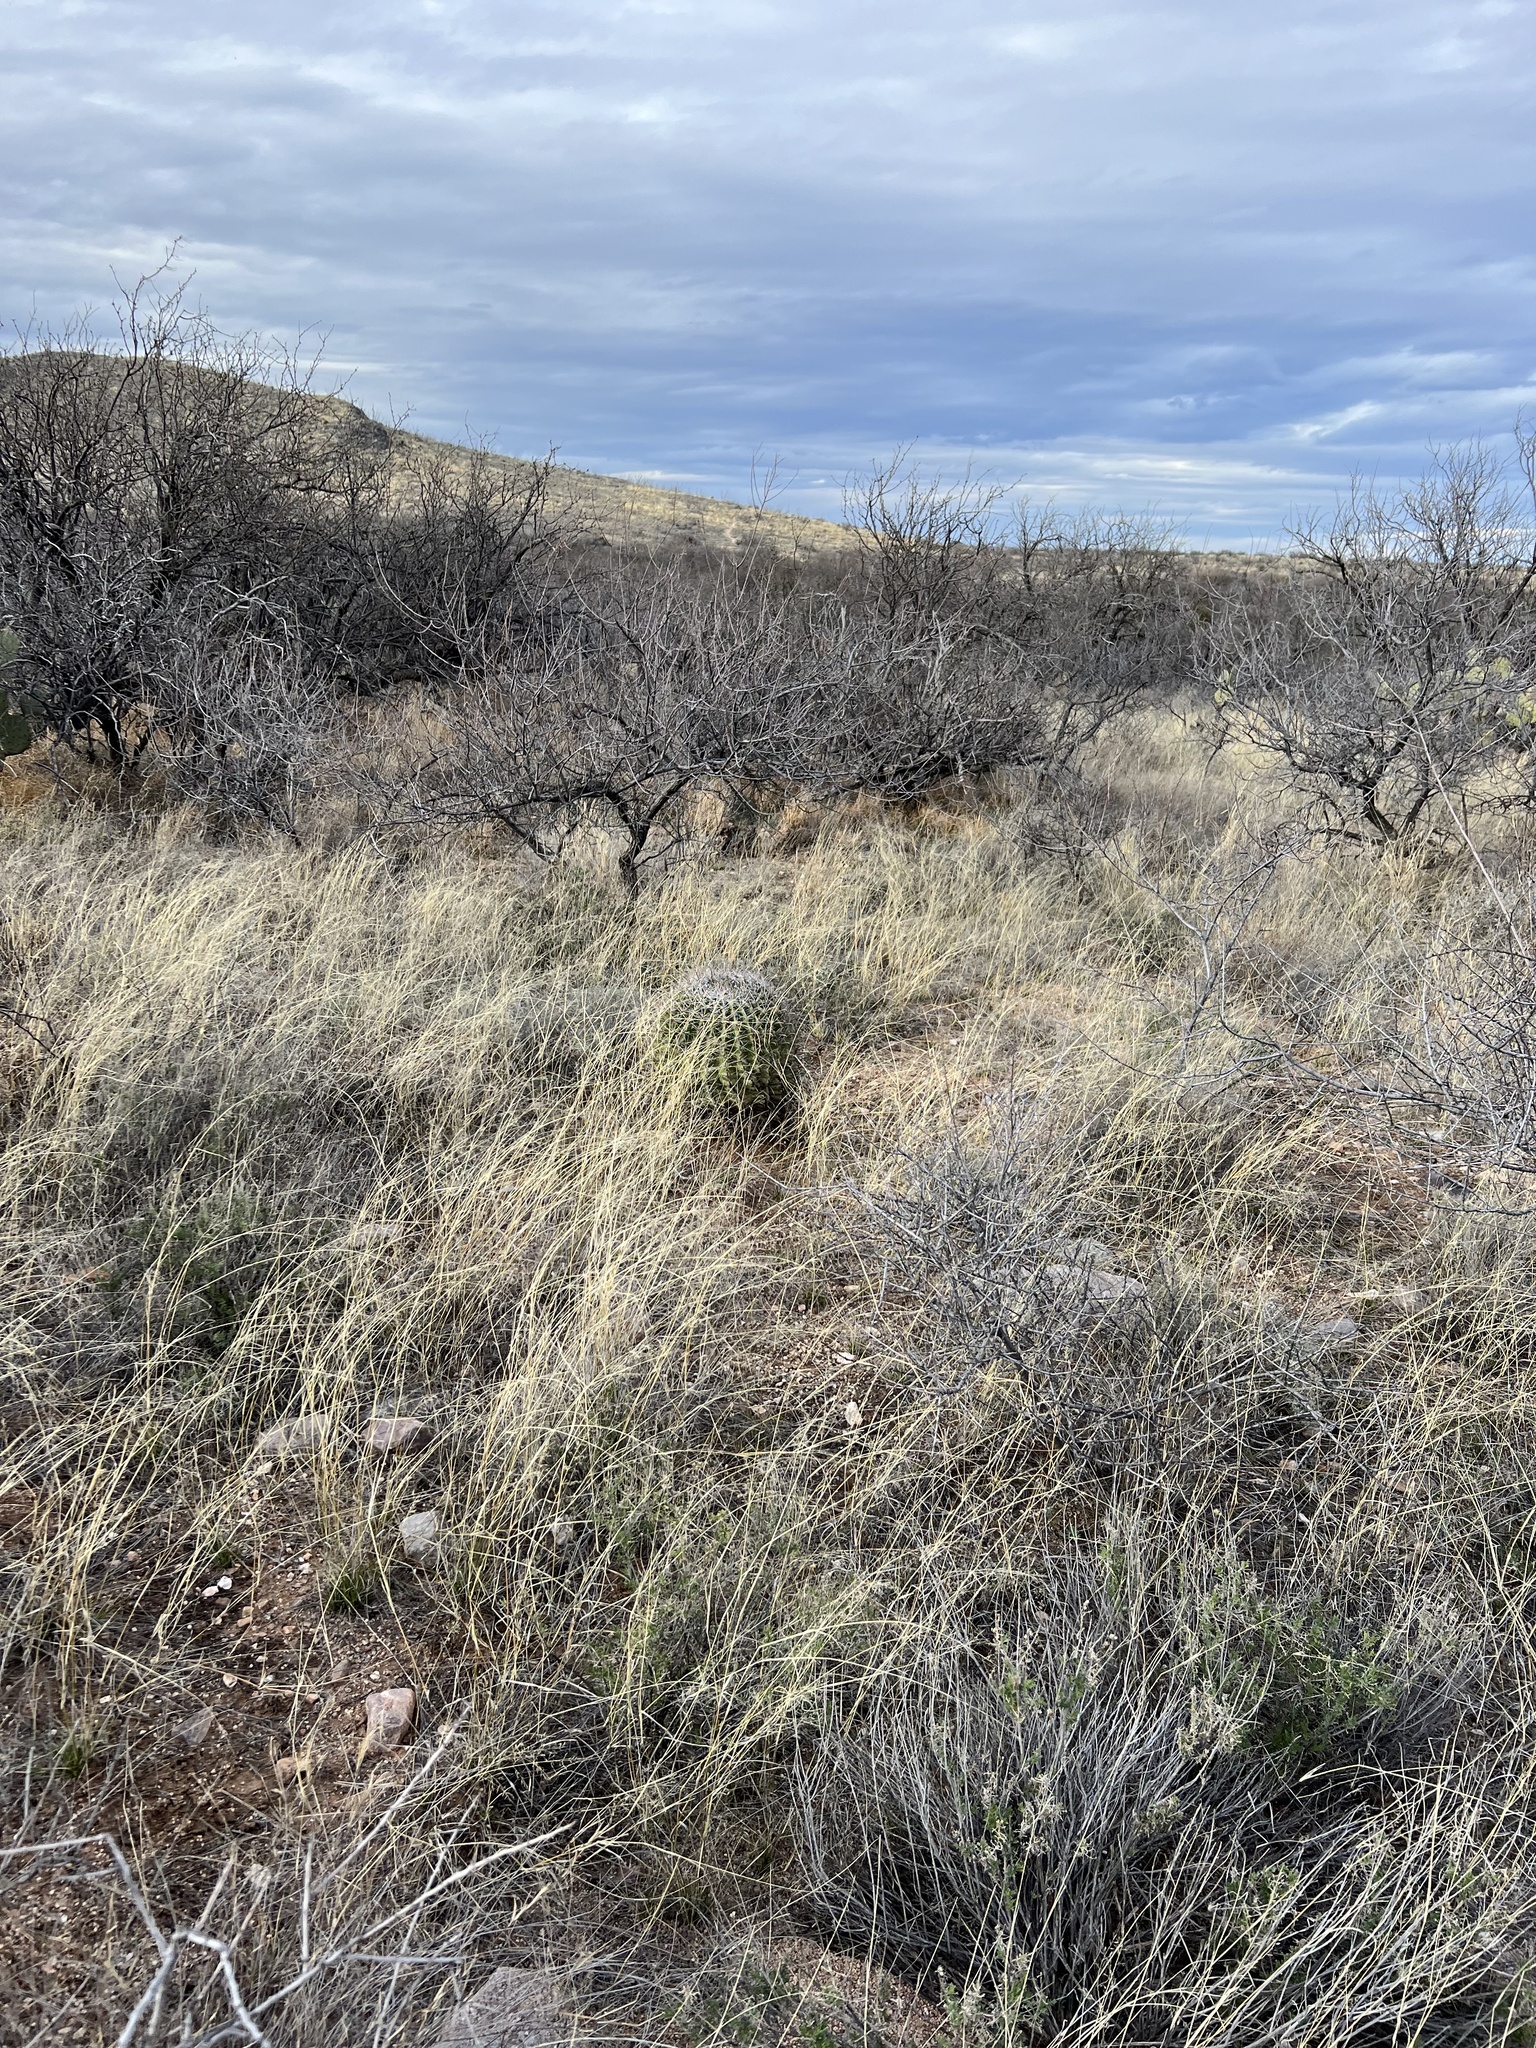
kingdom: Plantae
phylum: Tracheophyta
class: Magnoliopsida
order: Caryophyllales
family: Cactaceae
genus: Ferocactus
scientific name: Ferocactus wislizeni
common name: Candy barrel cactus
